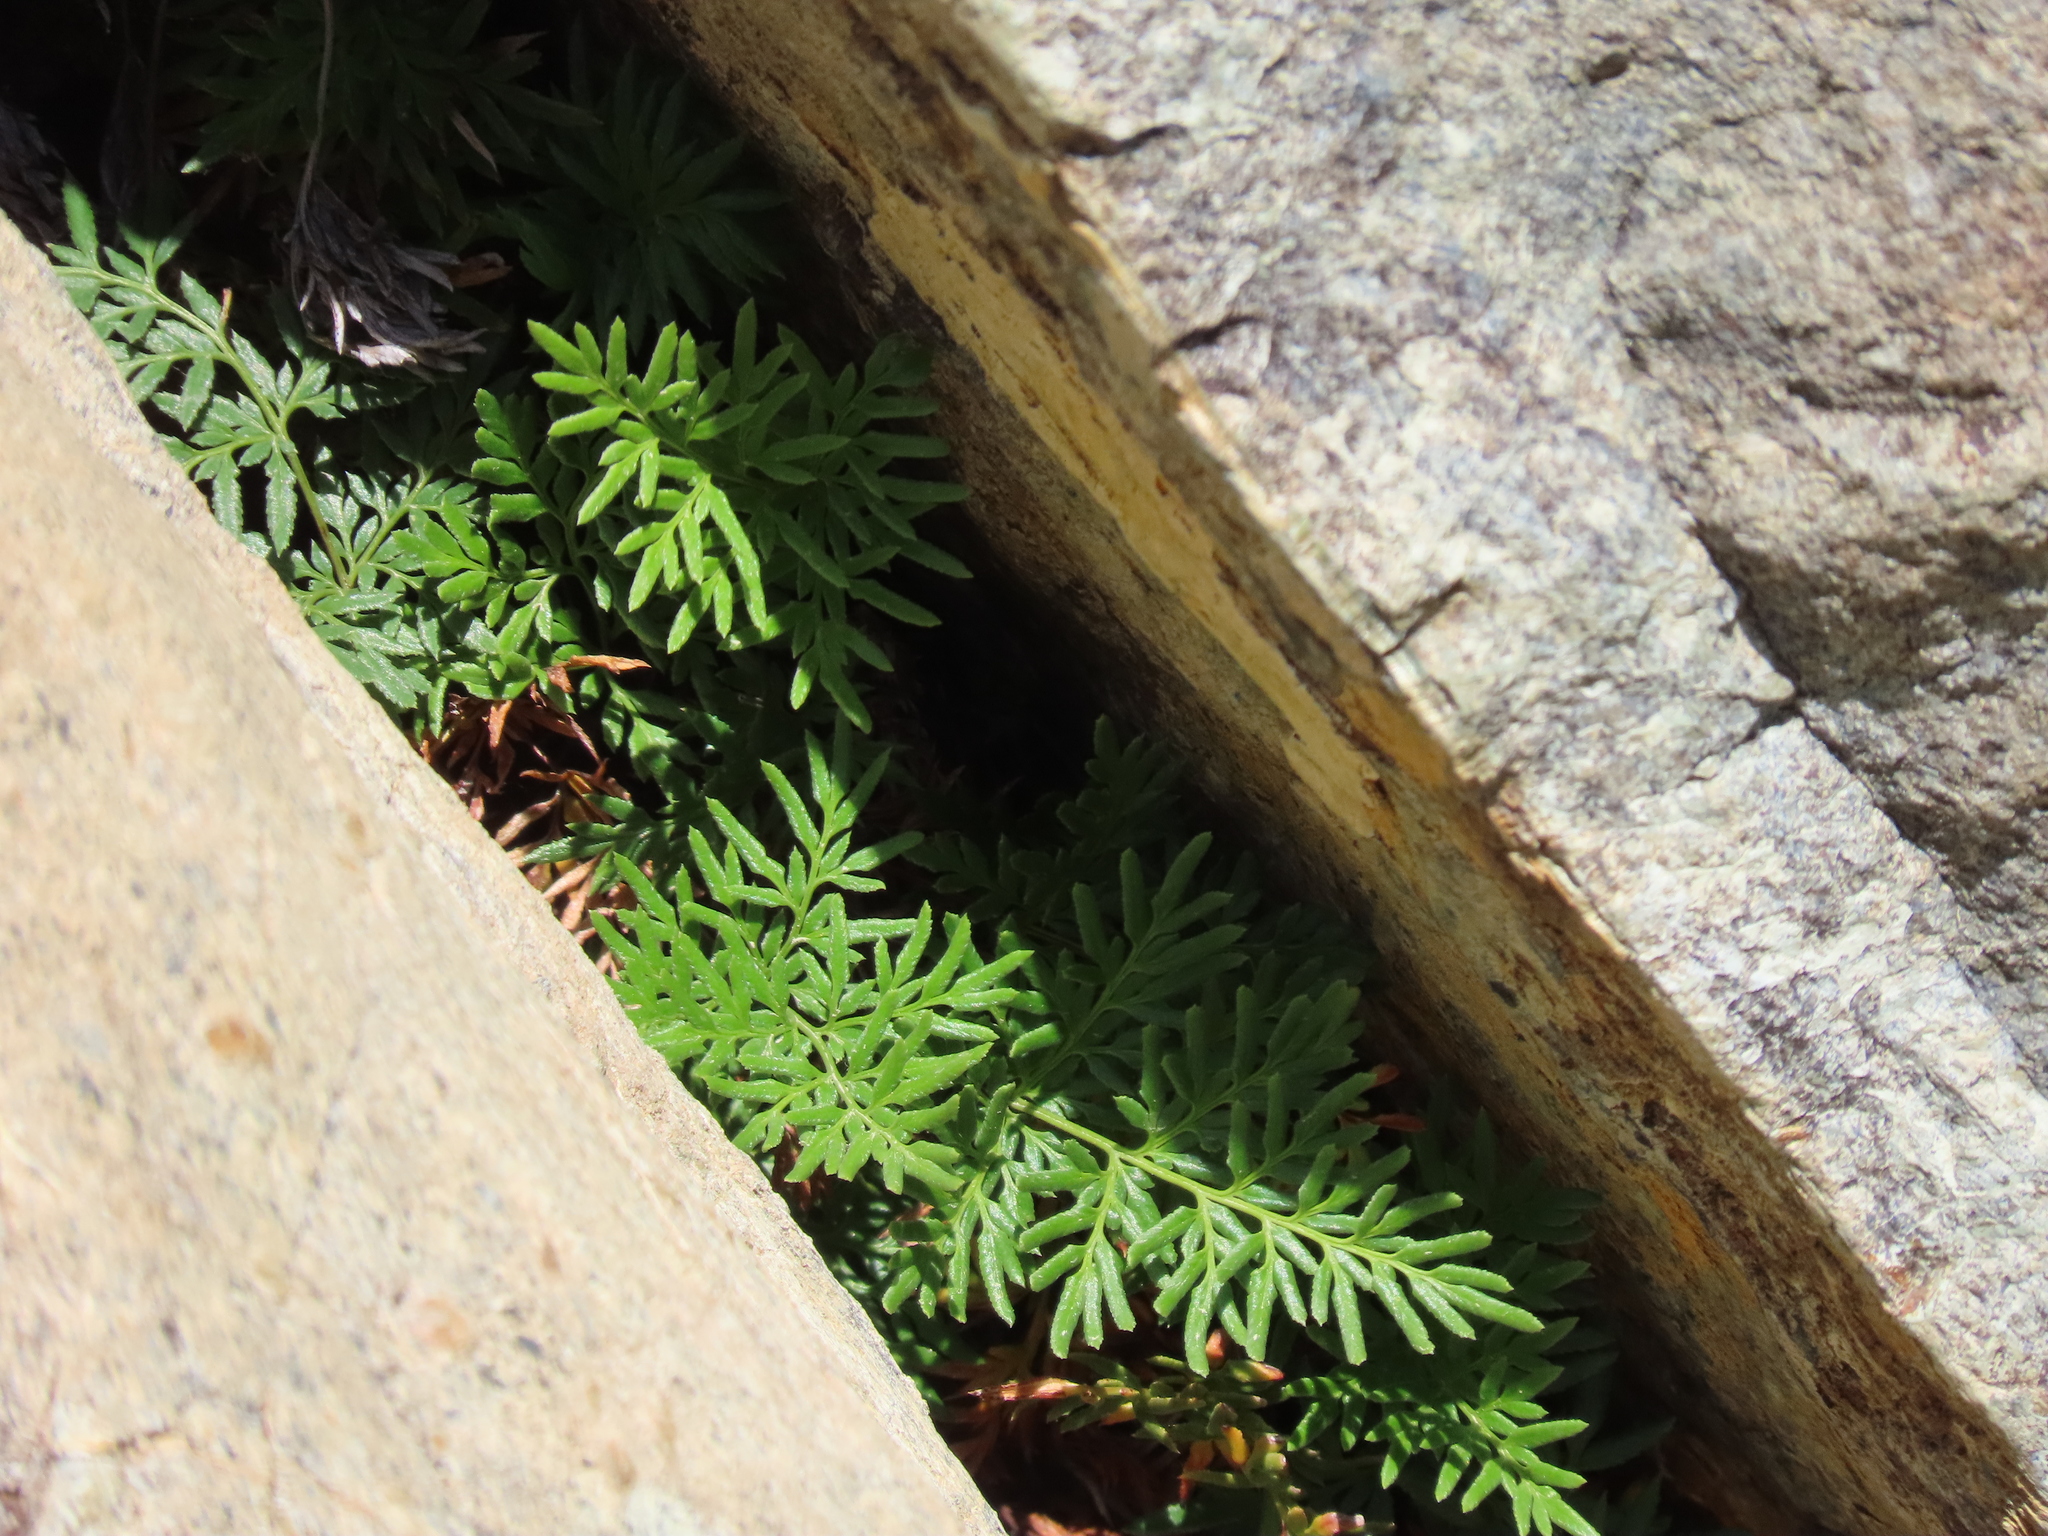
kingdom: Plantae
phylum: Tracheophyta
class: Polypodiopsida
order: Polypodiales
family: Pteridaceae
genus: Aspidotis
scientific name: Aspidotis densa
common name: Indian's dream
